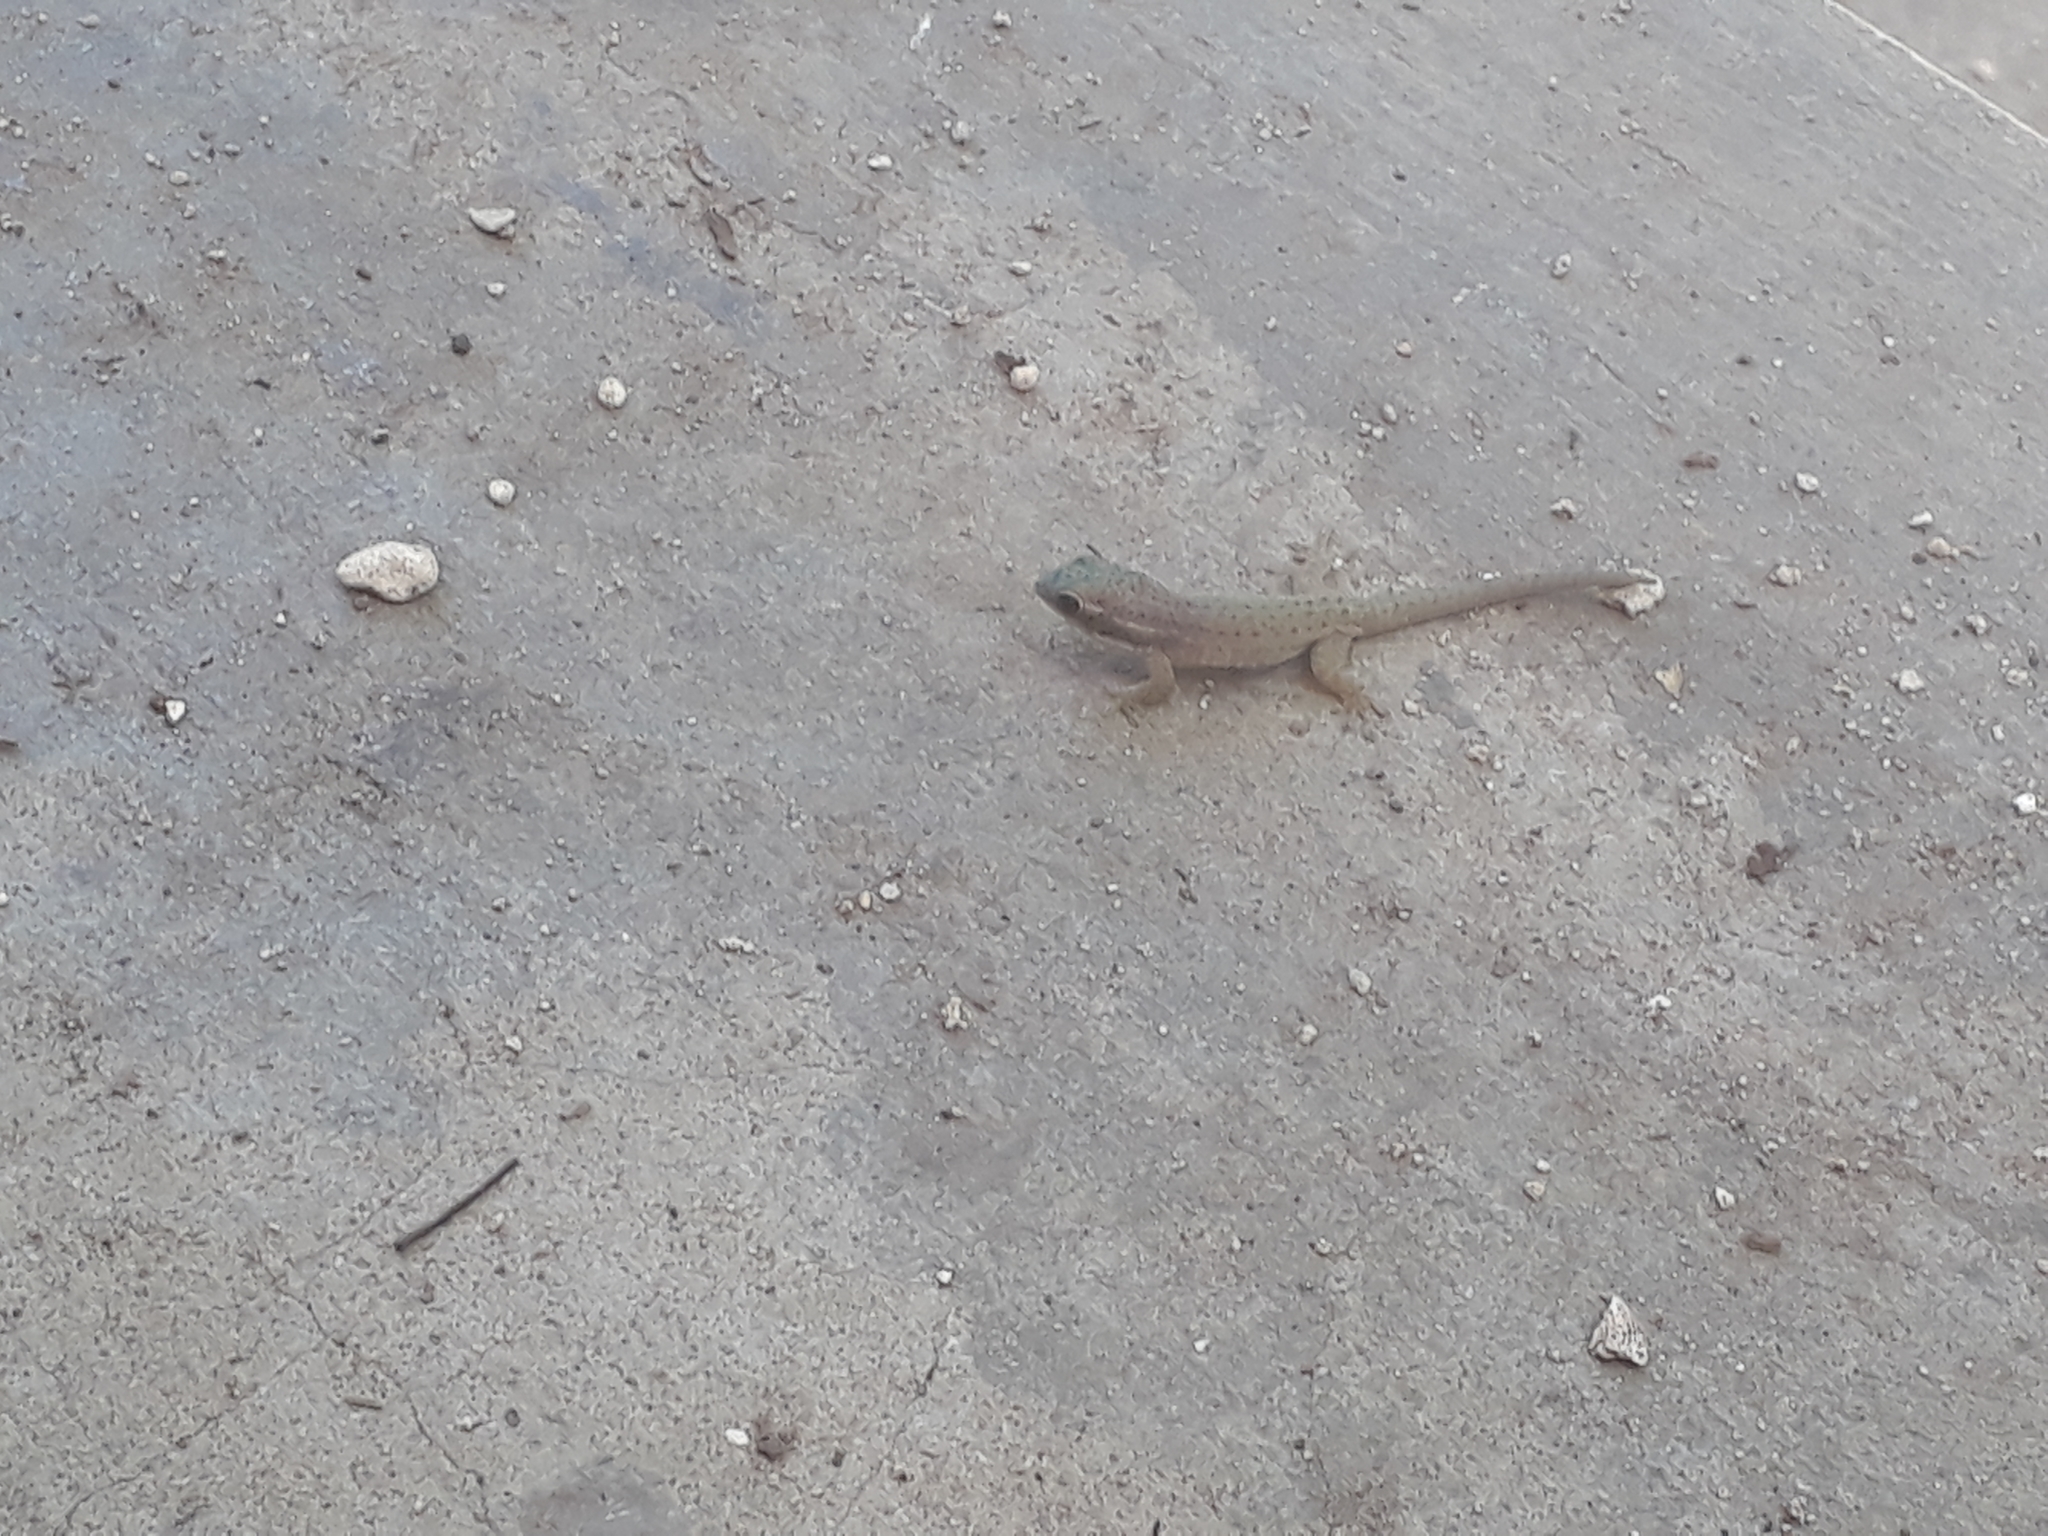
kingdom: Animalia
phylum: Chordata
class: Squamata
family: Gekkonidae
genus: Phelsuma
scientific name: Phelsuma ornata
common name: Ornate day gecko
